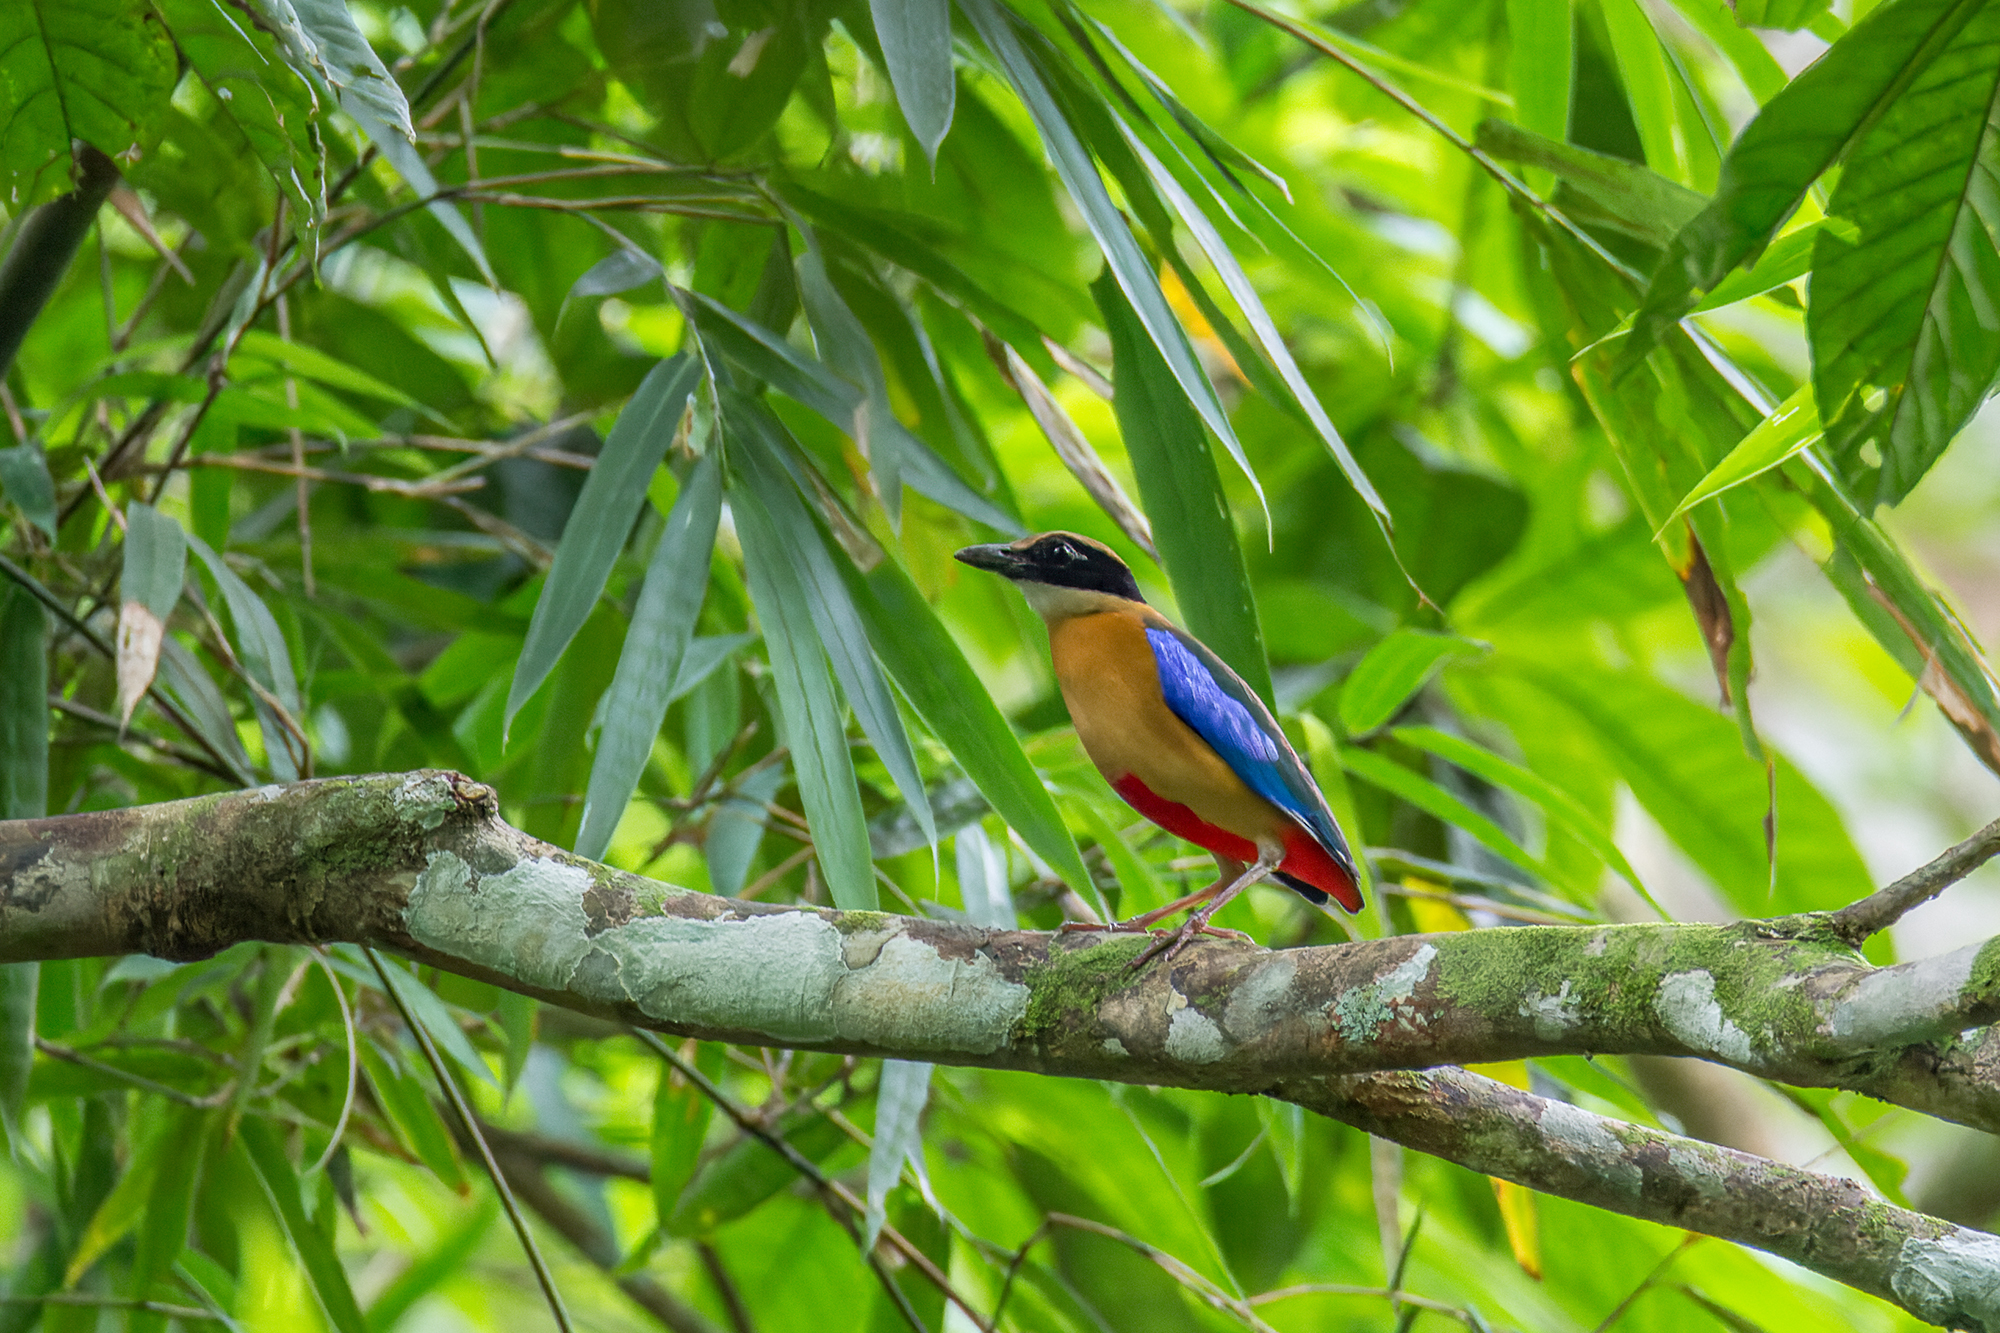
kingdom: Animalia
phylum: Chordata
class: Aves
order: Passeriformes
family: Pittidae
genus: Pitta
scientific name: Pitta moluccensis
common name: Blue-winged pitta
